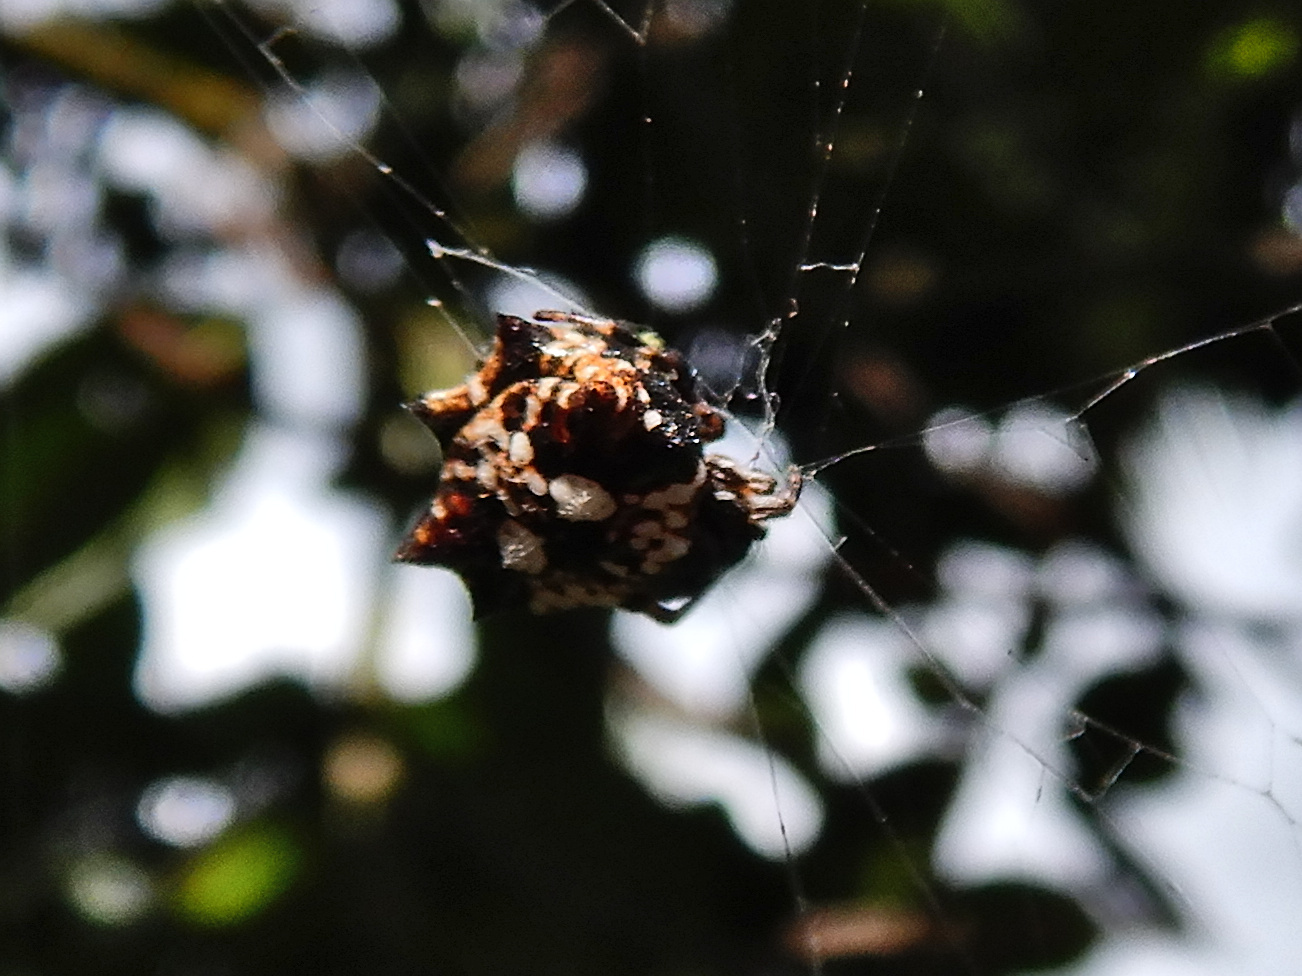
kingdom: Animalia
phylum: Arthropoda
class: Arachnida
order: Araneae
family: Araneidae
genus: Thelacantha
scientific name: Thelacantha brevispina
